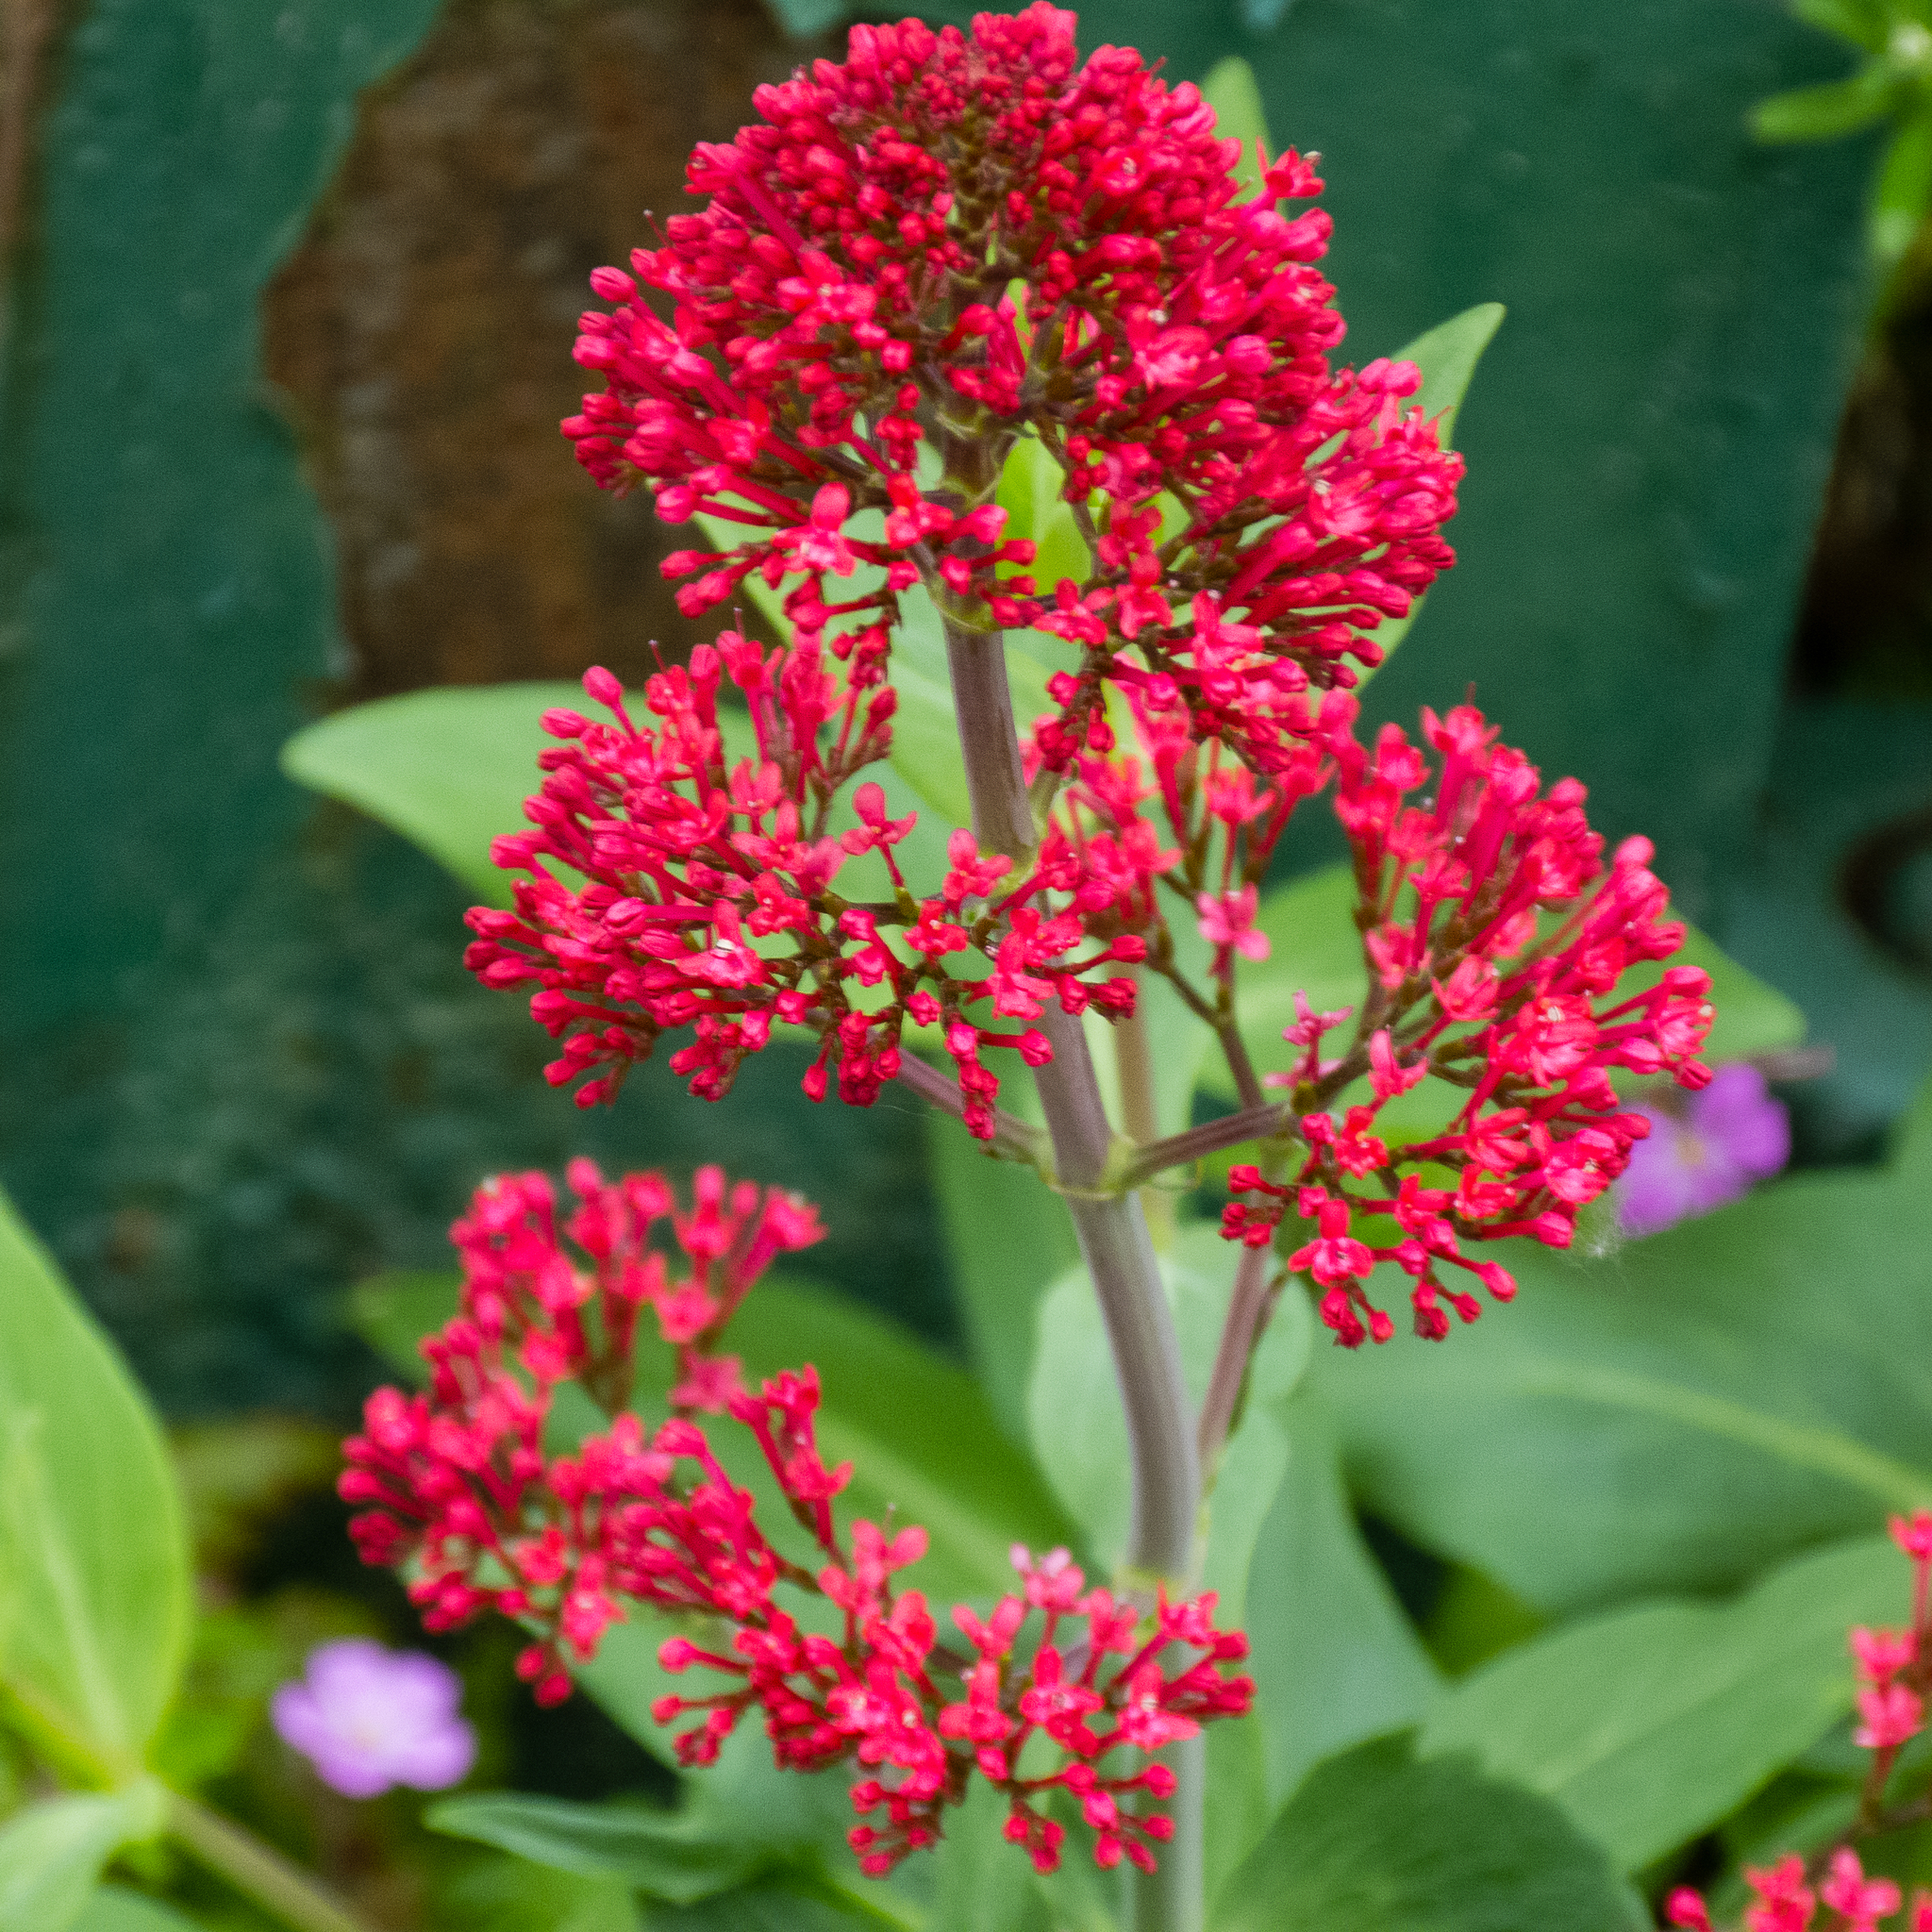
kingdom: Plantae
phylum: Tracheophyta
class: Magnoliopsida
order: Dipsacales
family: Caprifoliaceae
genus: Centranthus
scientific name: Centranthus ruber
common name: Red valerian
